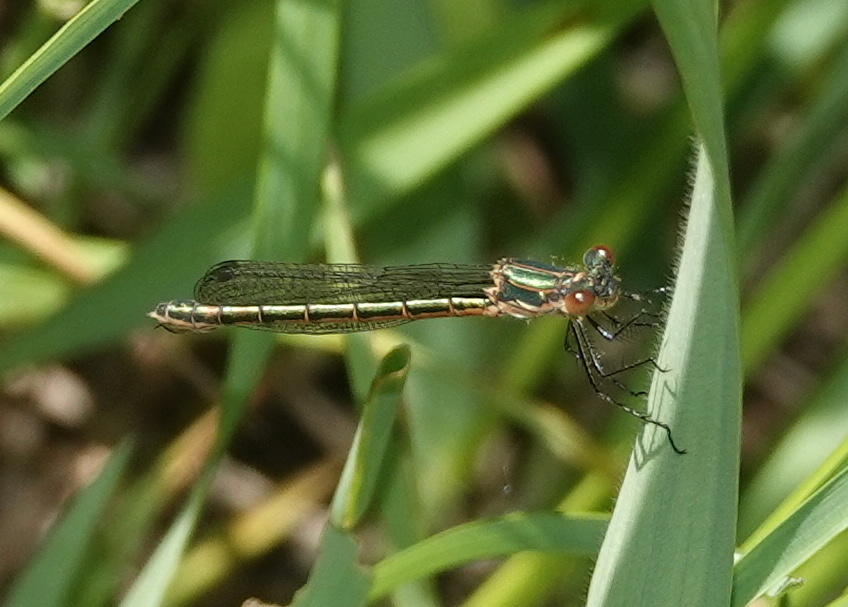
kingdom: Animalia
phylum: Arthropoda
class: Insecta
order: Odonata
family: Lestidae
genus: Lestes
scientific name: Lestes dryas
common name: Scarce emerald damselfly
